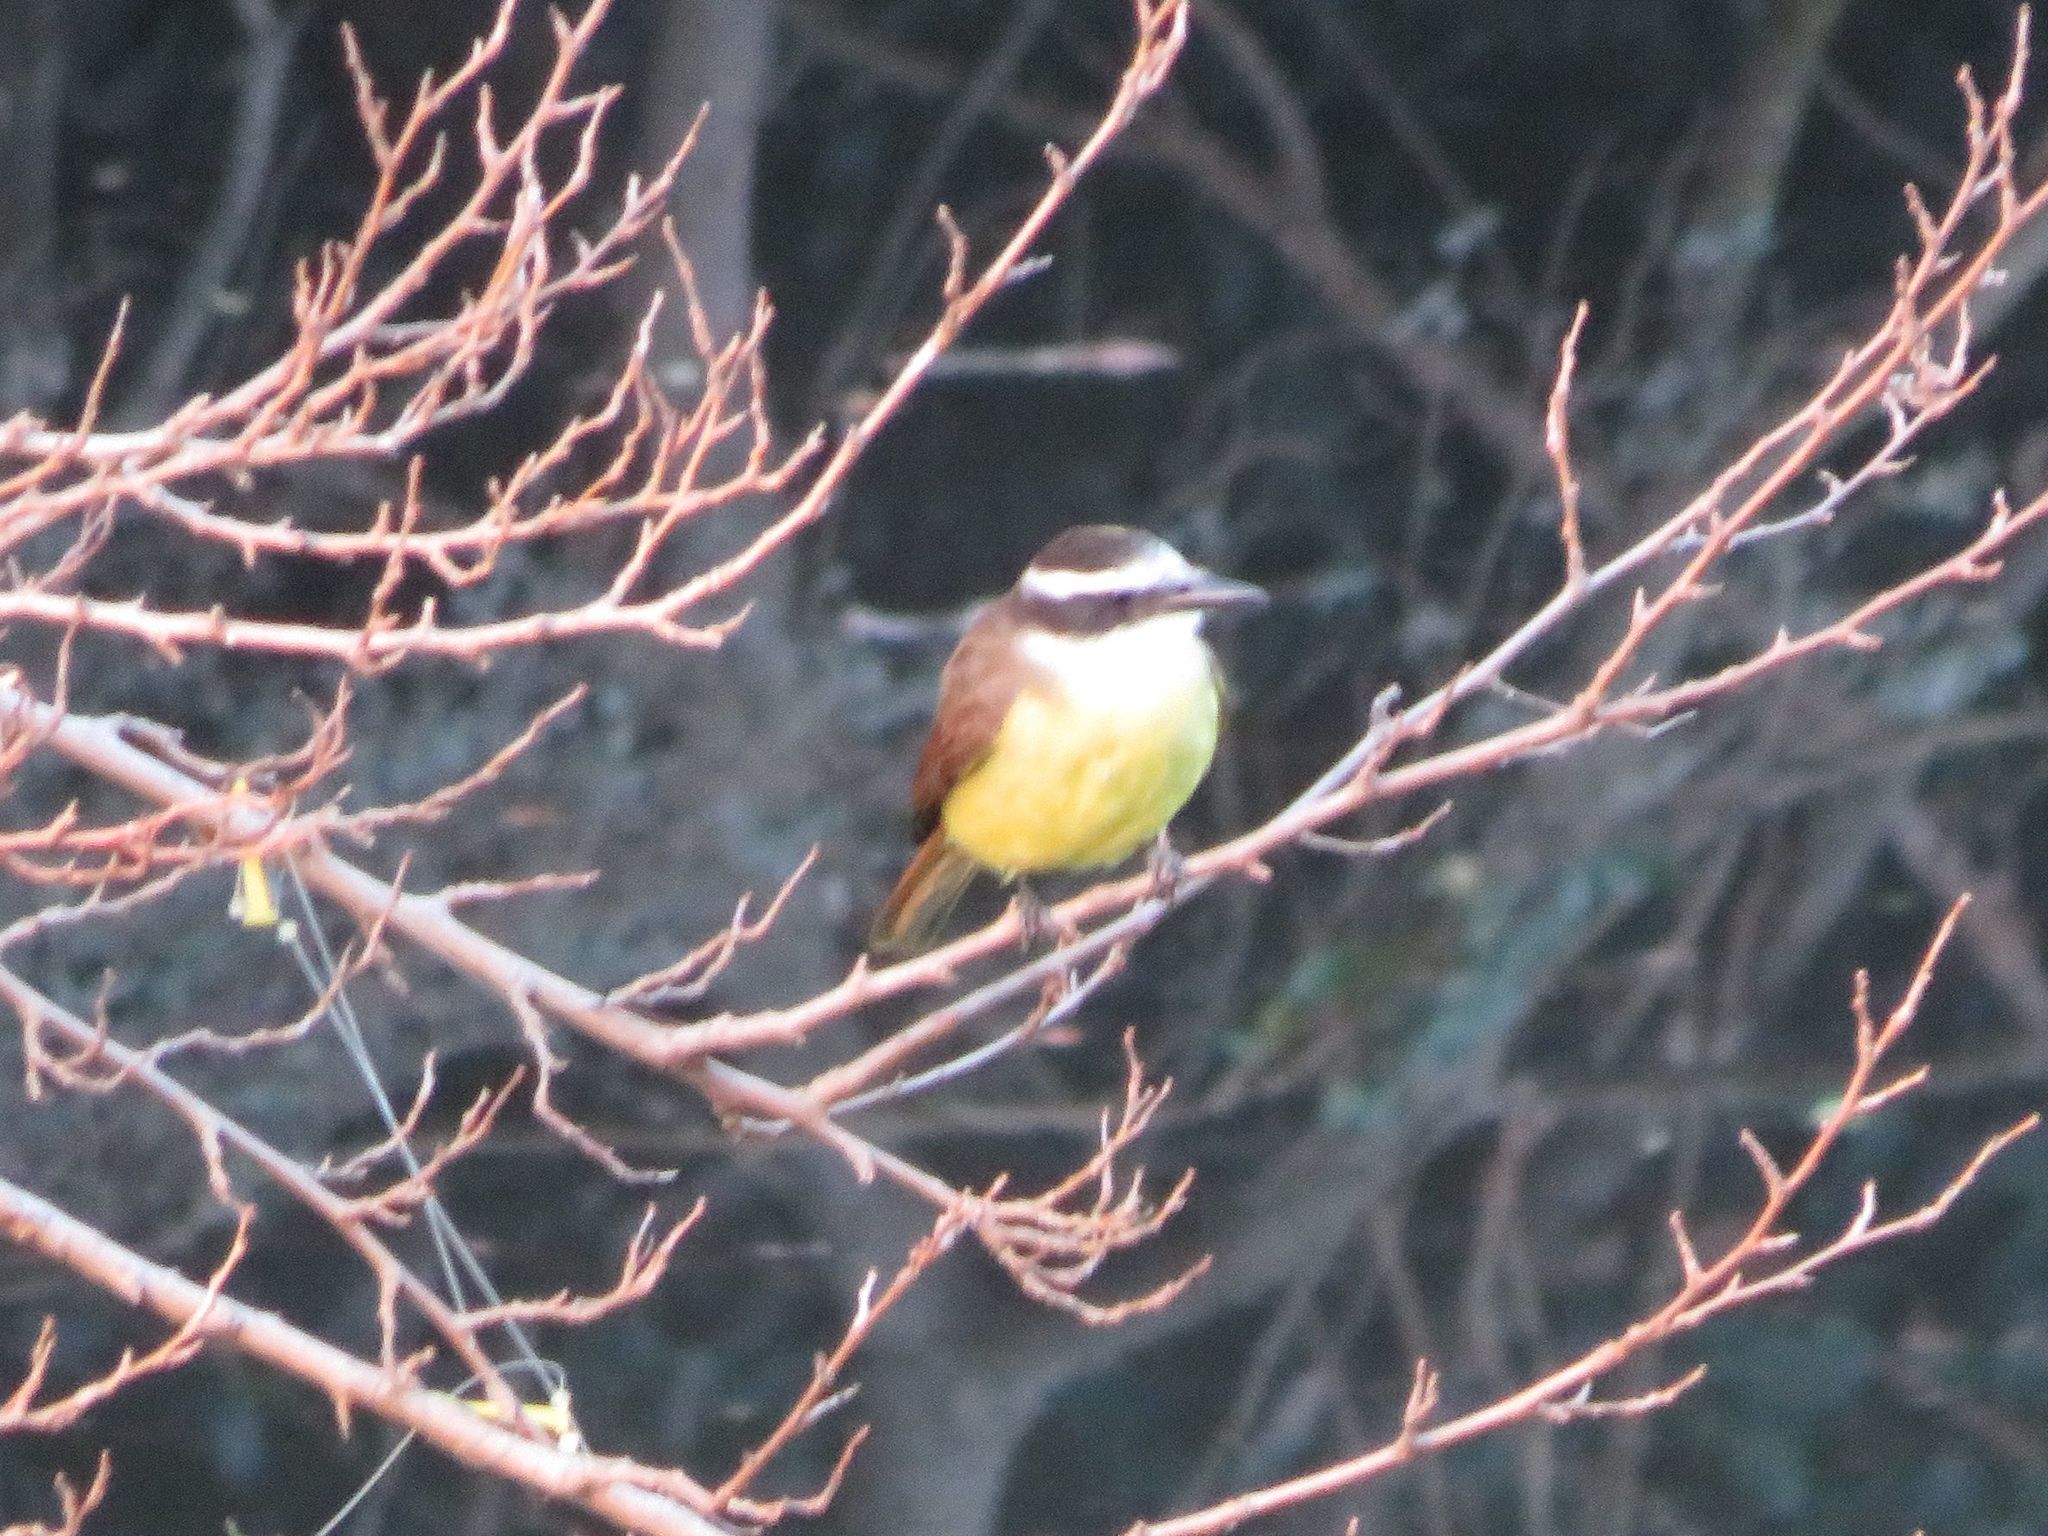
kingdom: Animalia
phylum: Chordata
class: Aves
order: Passeriformes
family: Tyrannidae
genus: Pitangus
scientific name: Pitangus sulphuratus
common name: Great kiskadee
